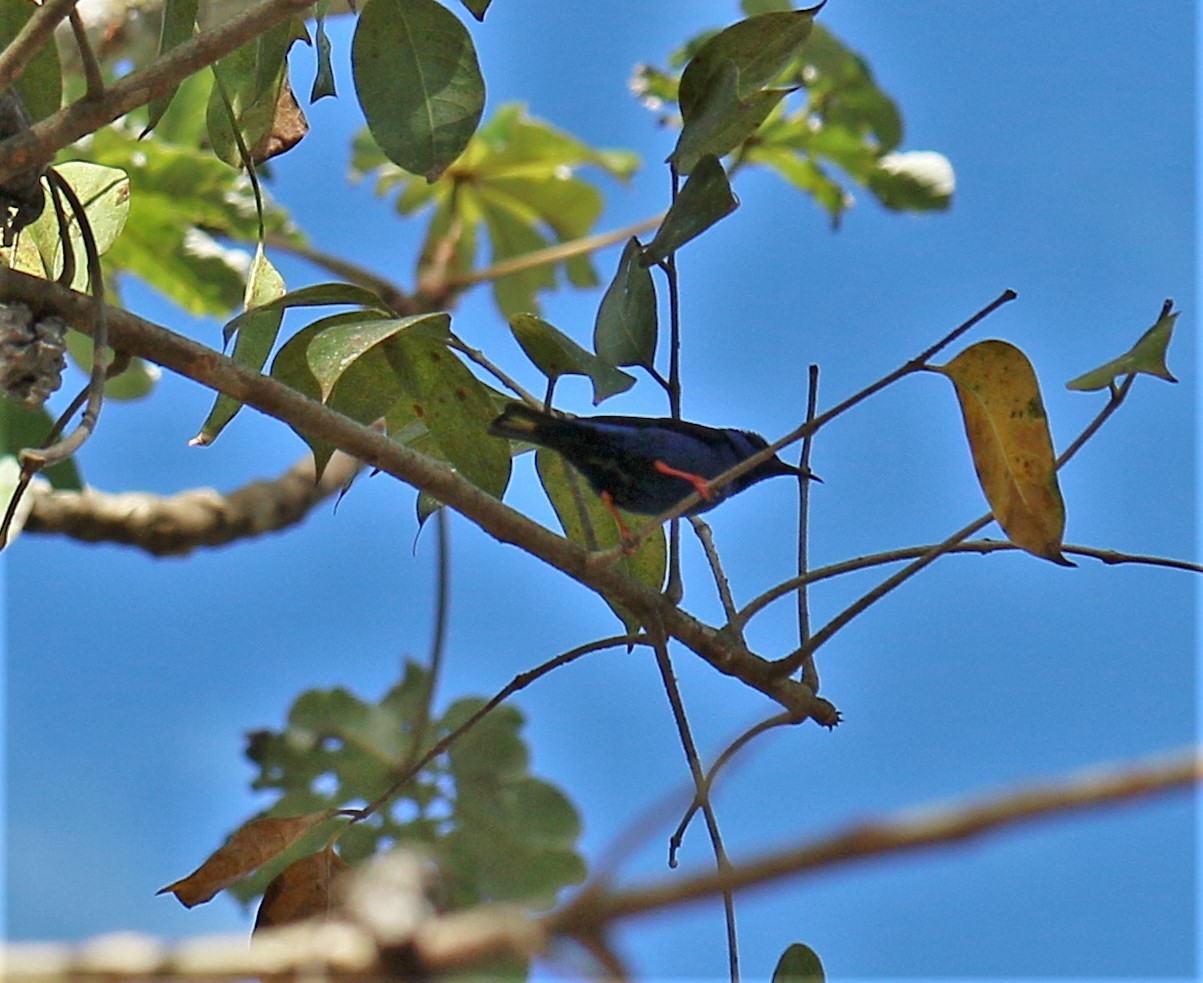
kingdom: Animalia
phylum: Chordata
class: Aves
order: Passeriformes
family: Thraupidae
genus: Cyanerpes
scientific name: Cyanerpes cyaneus
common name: Red-legged honeycreeper
